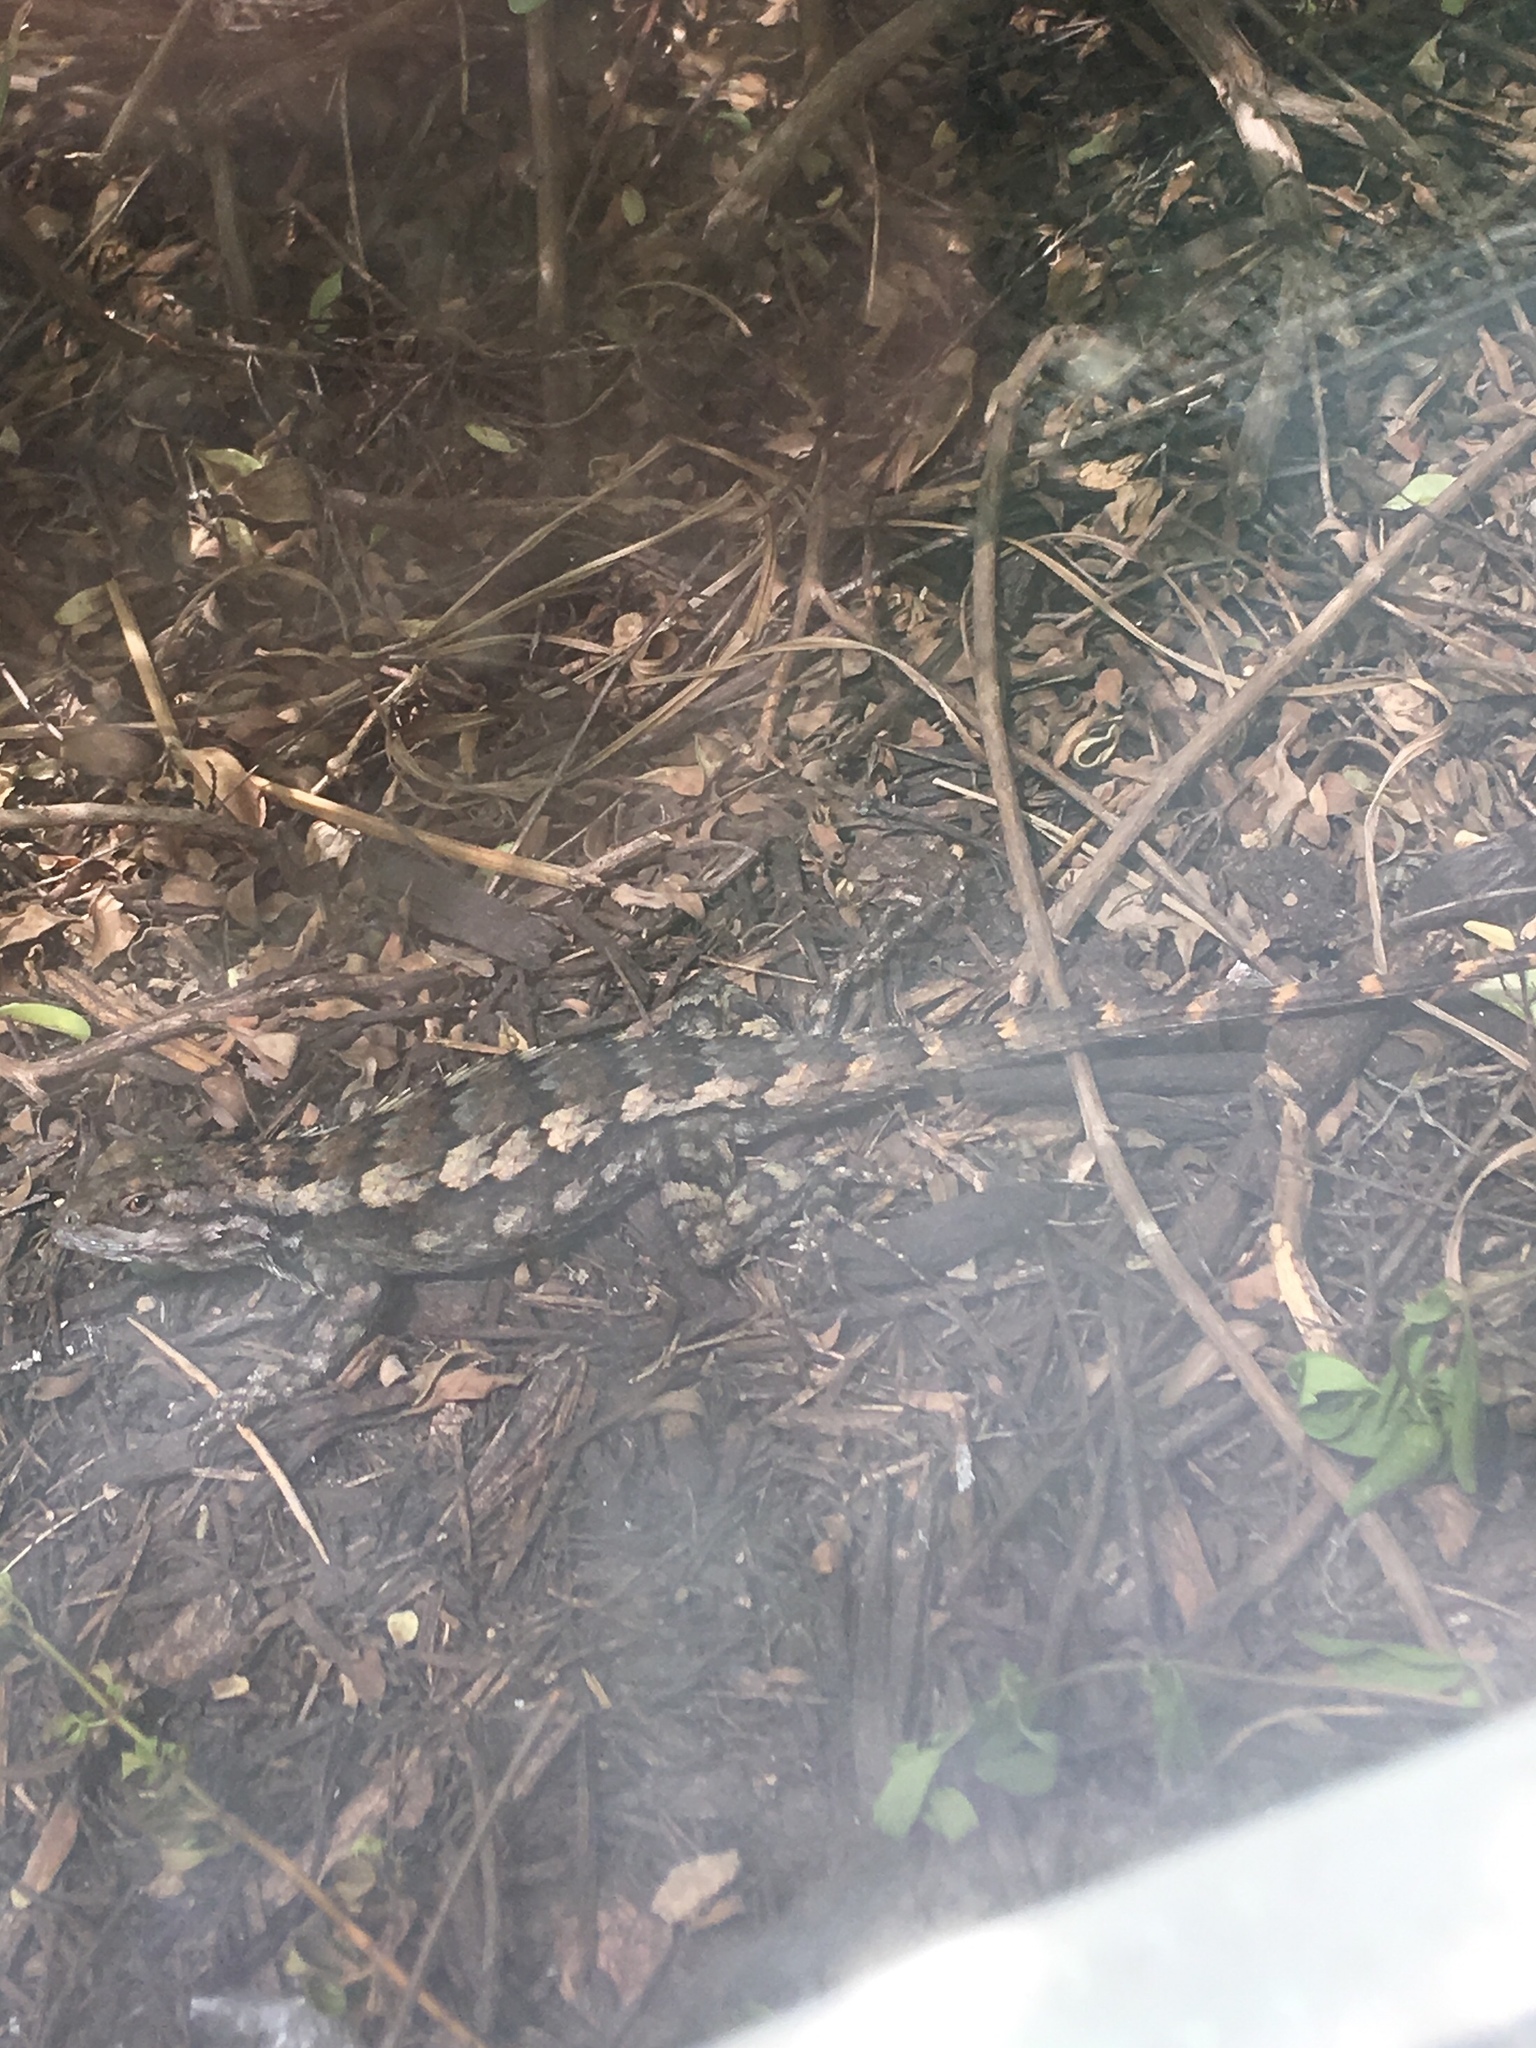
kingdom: Animalia
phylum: Chordata
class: Squamata
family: Phrynosomatidae
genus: Sceloporus
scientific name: Sceloporus olivaceus
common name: Texas spiny lizard
